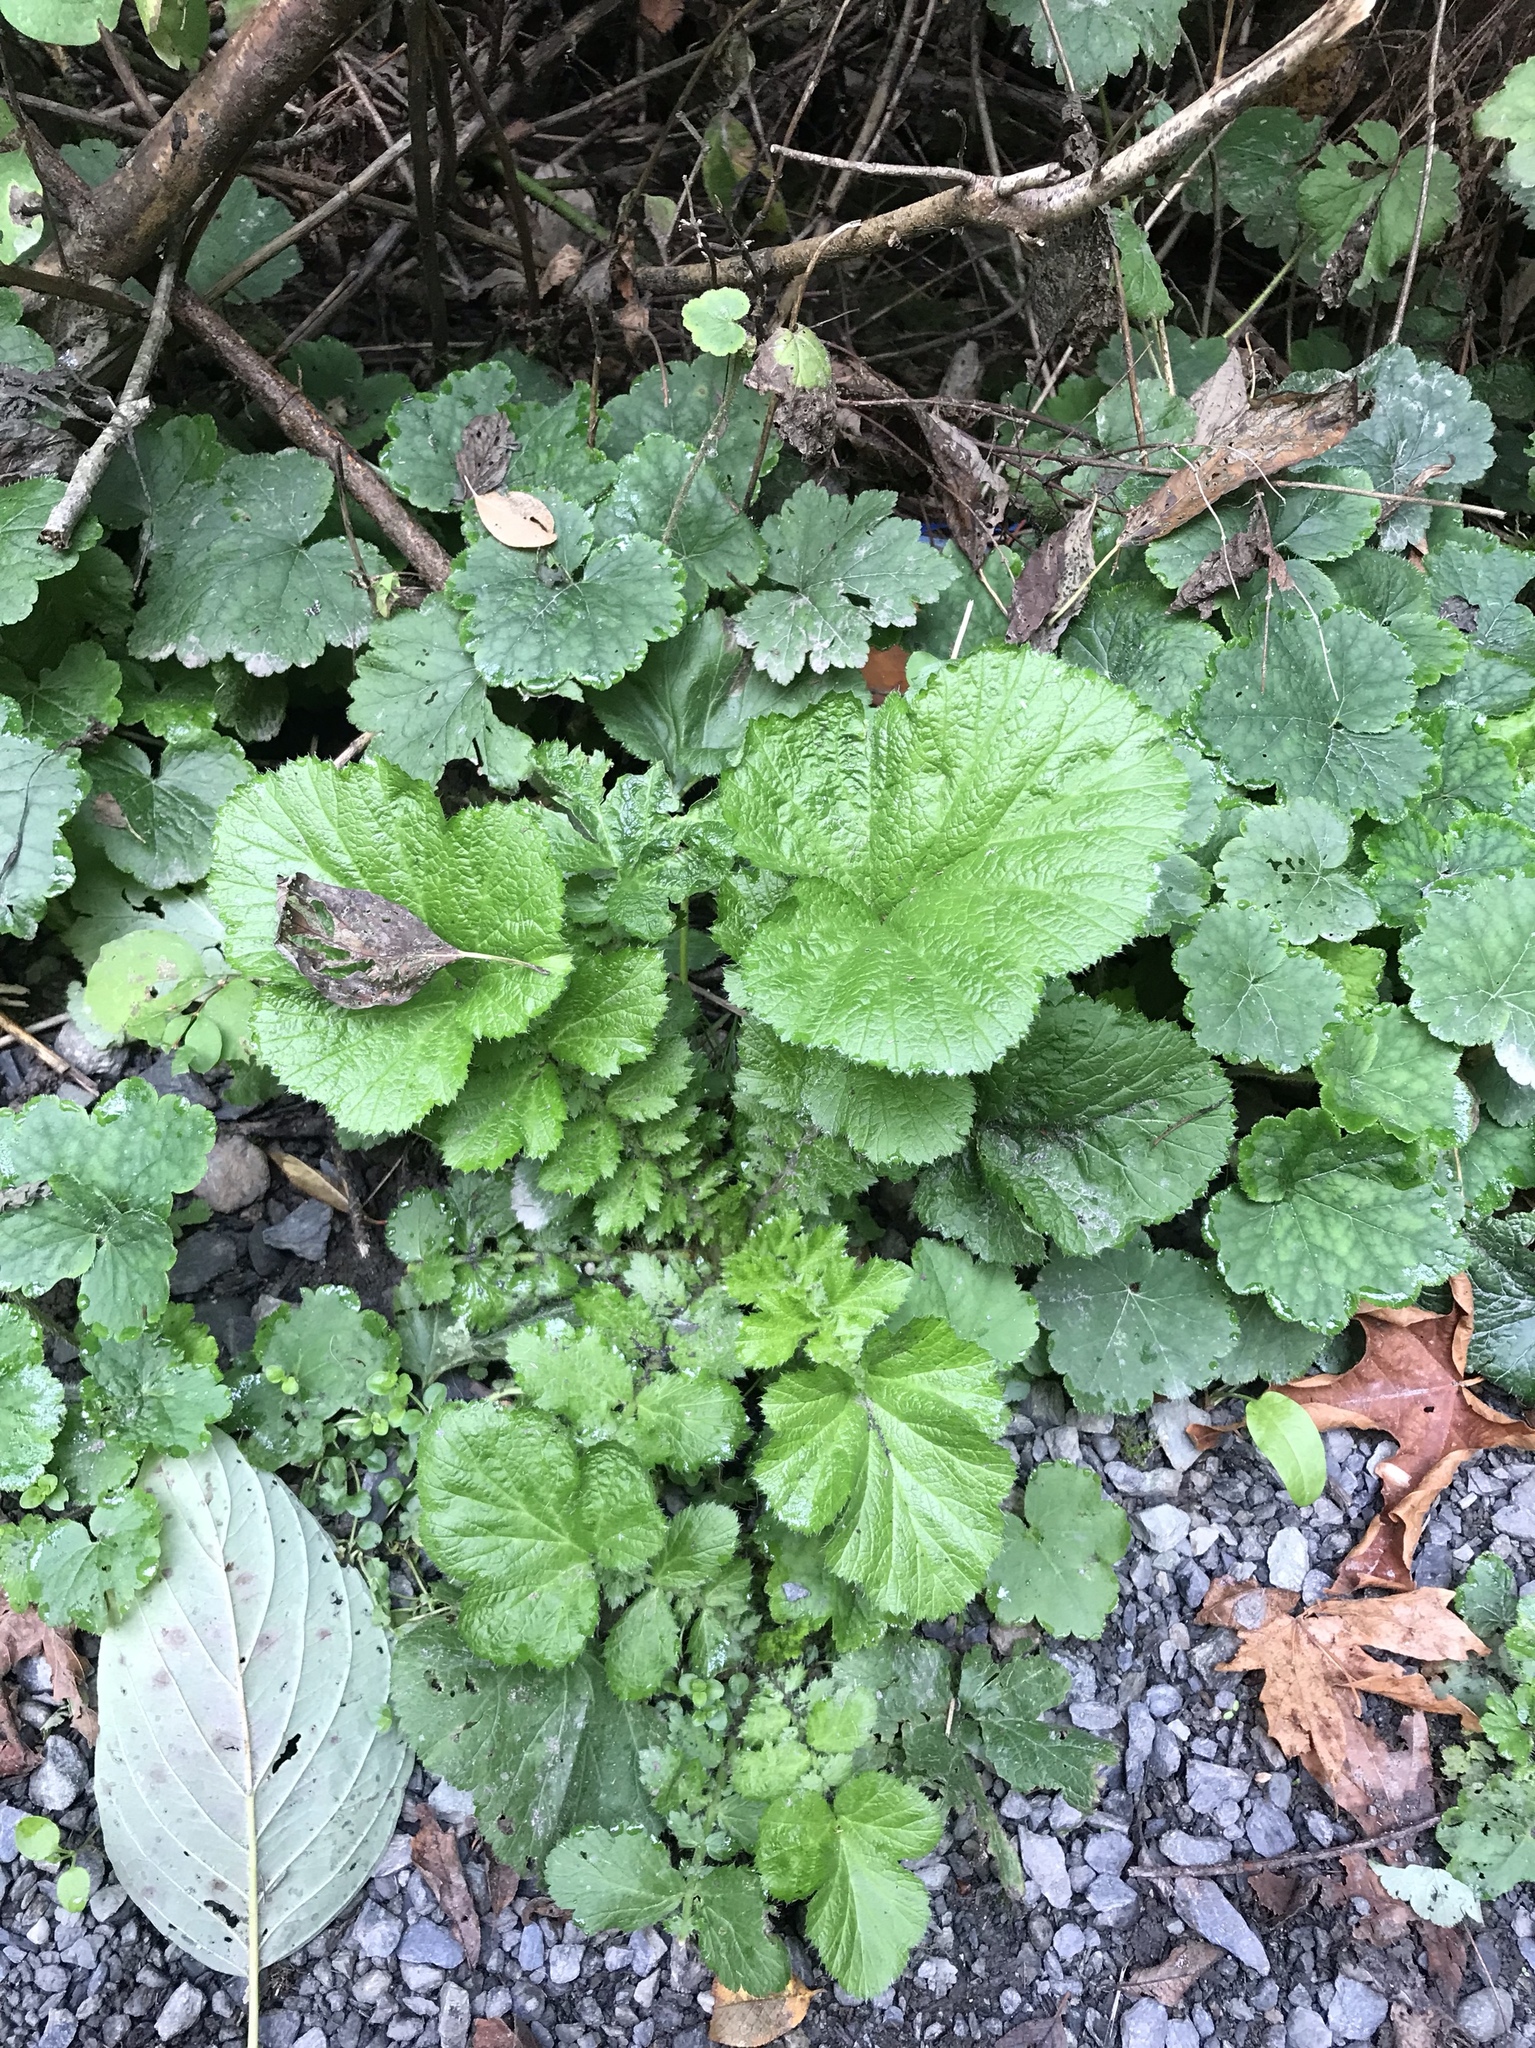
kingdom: Plantae
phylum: Tracheophyta
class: Magnoliopsida
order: Rosales
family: Rosaceae
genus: Geum
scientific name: Geum macrophyllum
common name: Large-leaved avens
